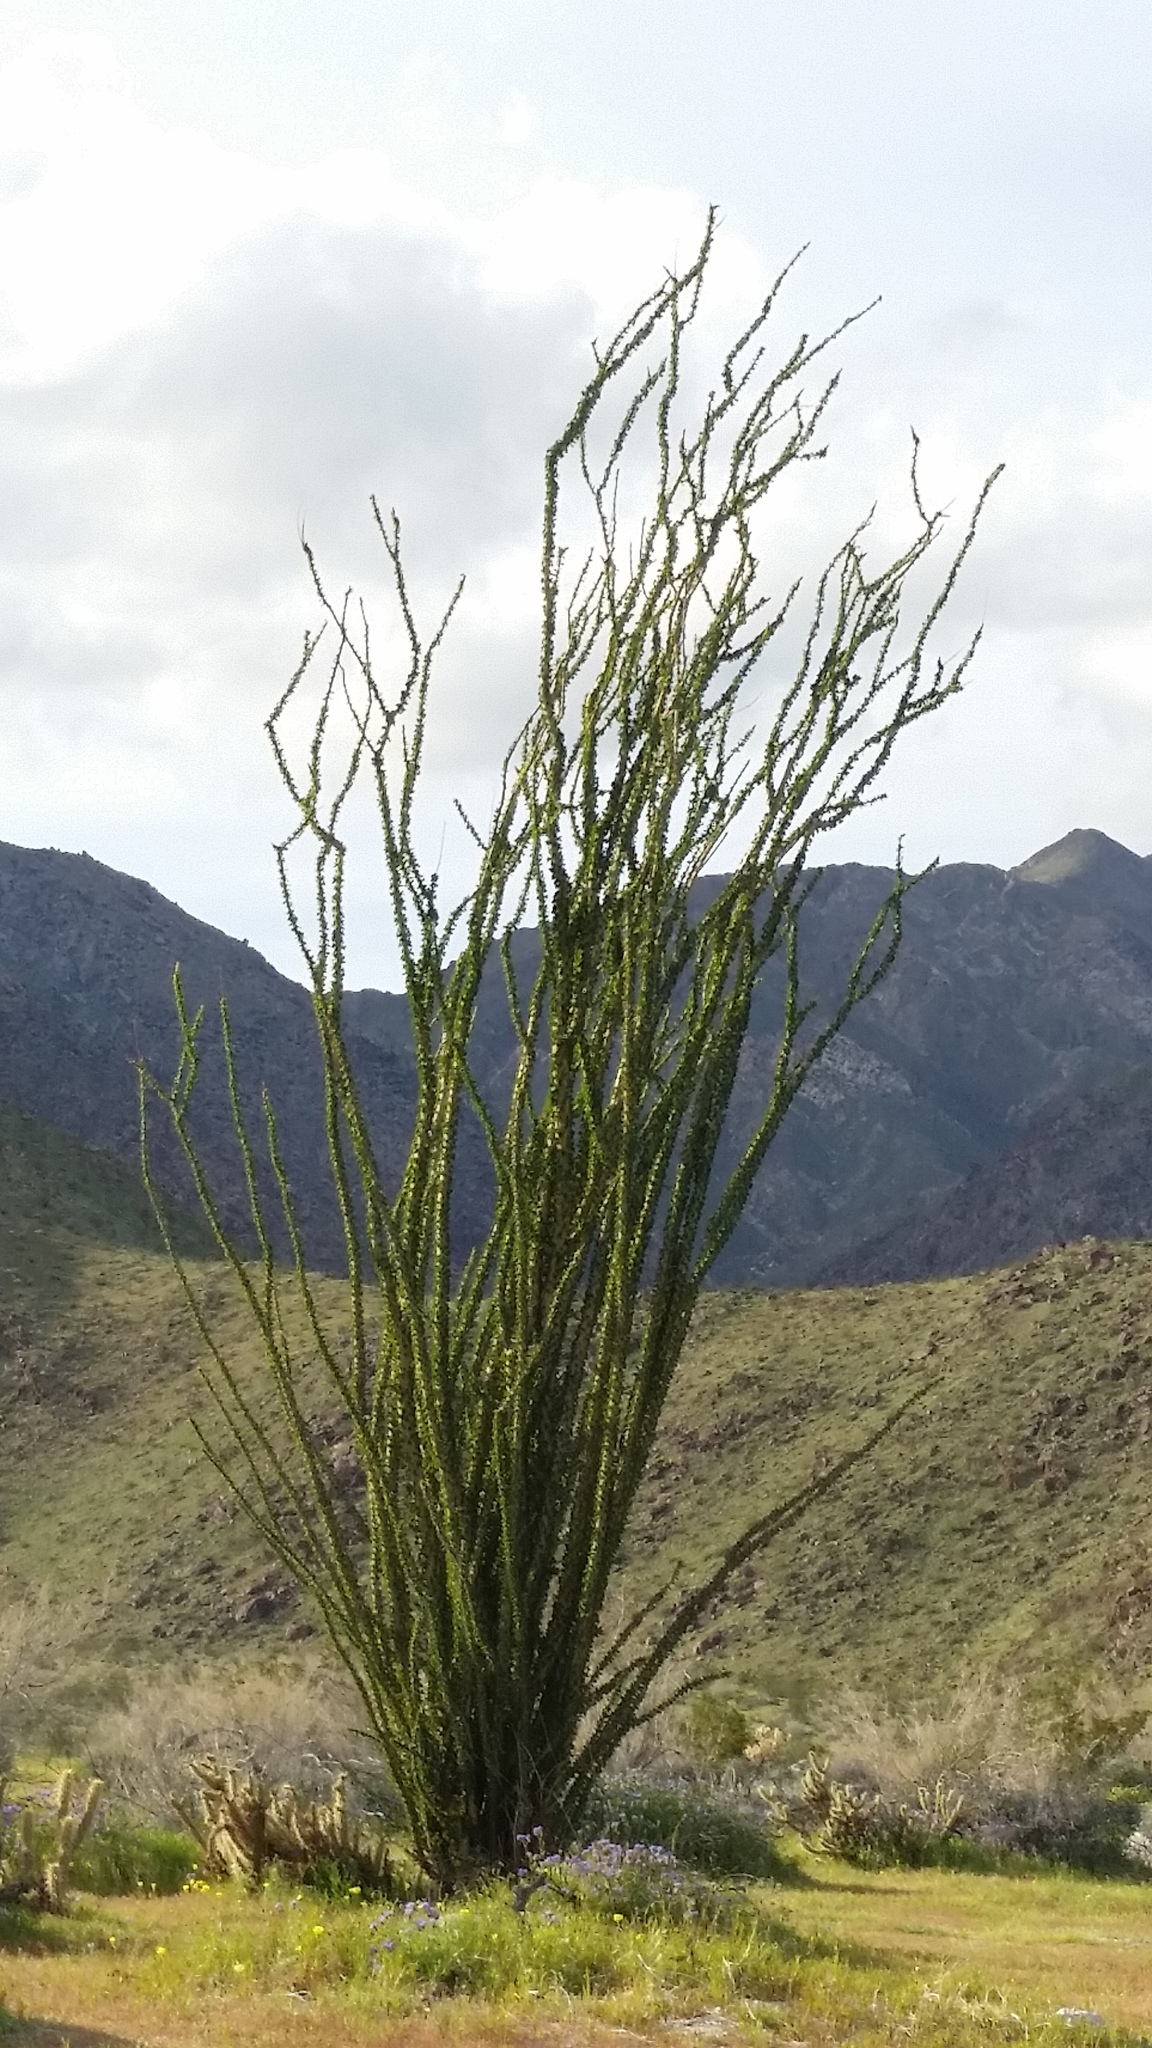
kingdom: Plantae
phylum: Tracheophyta
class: Magnoliopsida
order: Ericales
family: Fouquieriaceae
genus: Fouquieria
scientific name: Fouquieria splendens
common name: Vine-cactus
